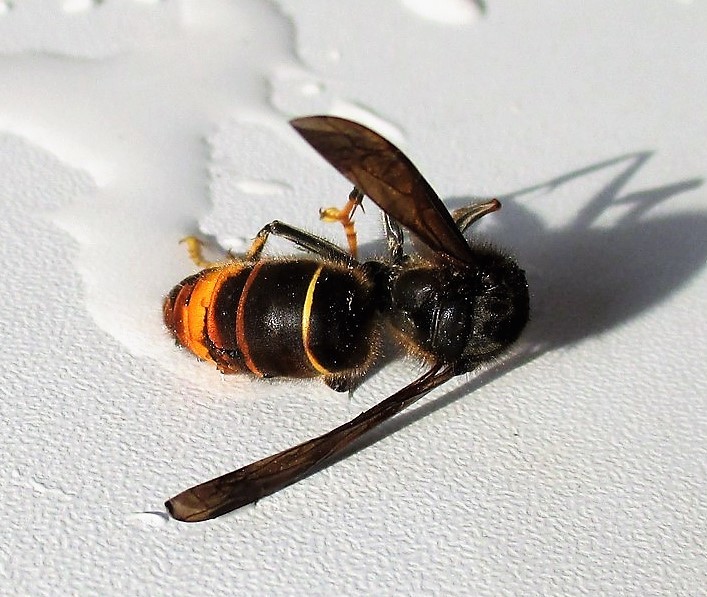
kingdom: Animalia
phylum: Arthropoda
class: Insecta
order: Hymenoptera
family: Vespidae
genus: Vespa
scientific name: Vespa velutina
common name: Asian hornet
